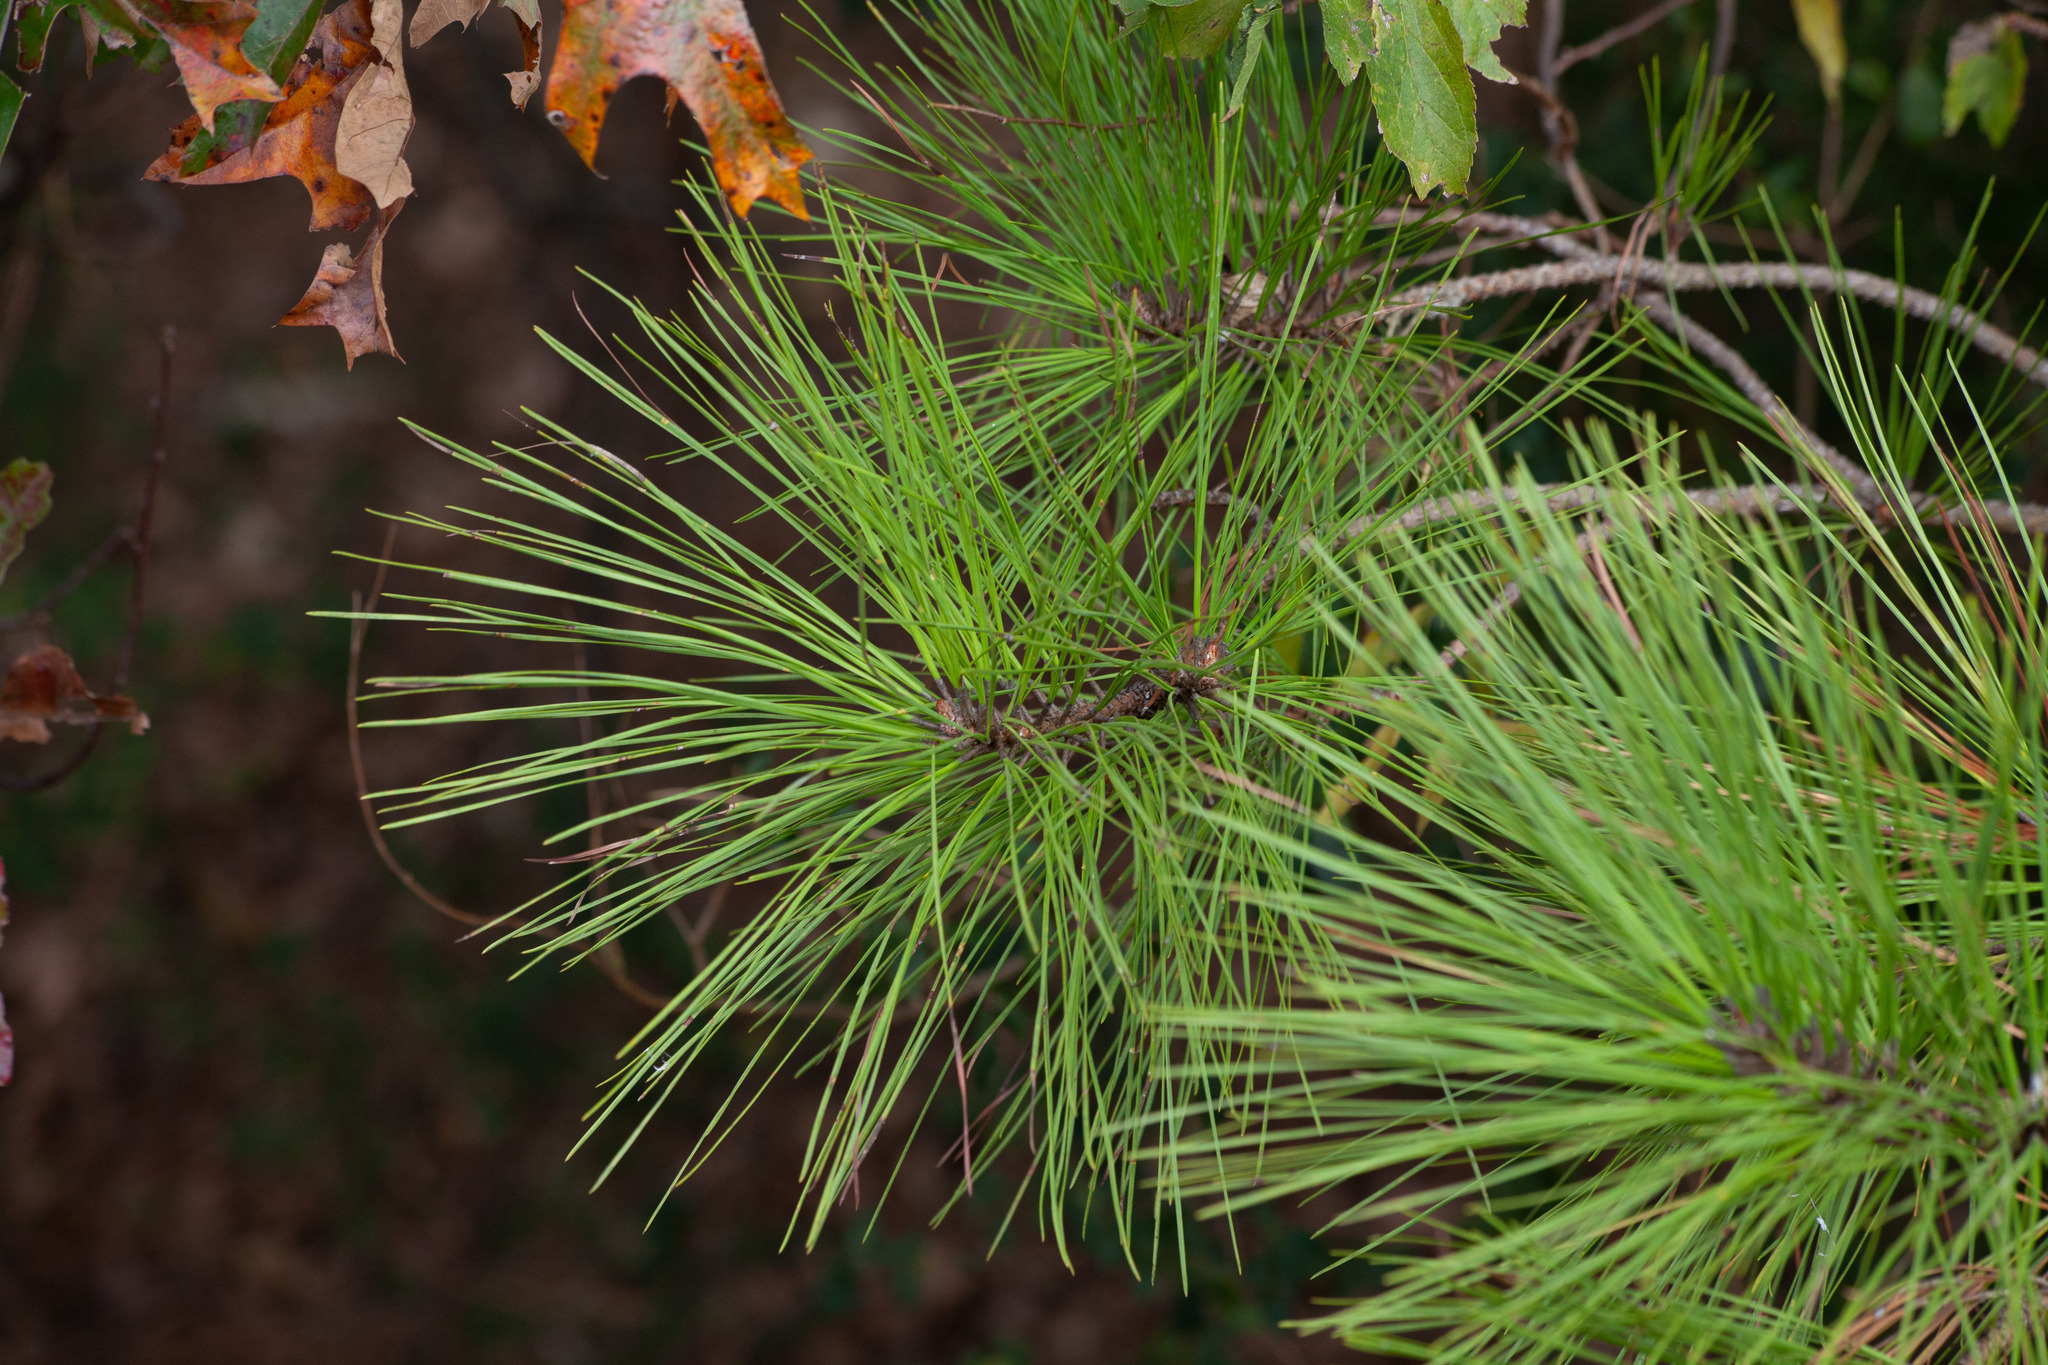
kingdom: Plantae
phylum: Tracheophyta
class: Pinopsida
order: Pinales
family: Pinaceae
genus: Pinus
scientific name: Pinus taeda
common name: Loblolly pine
